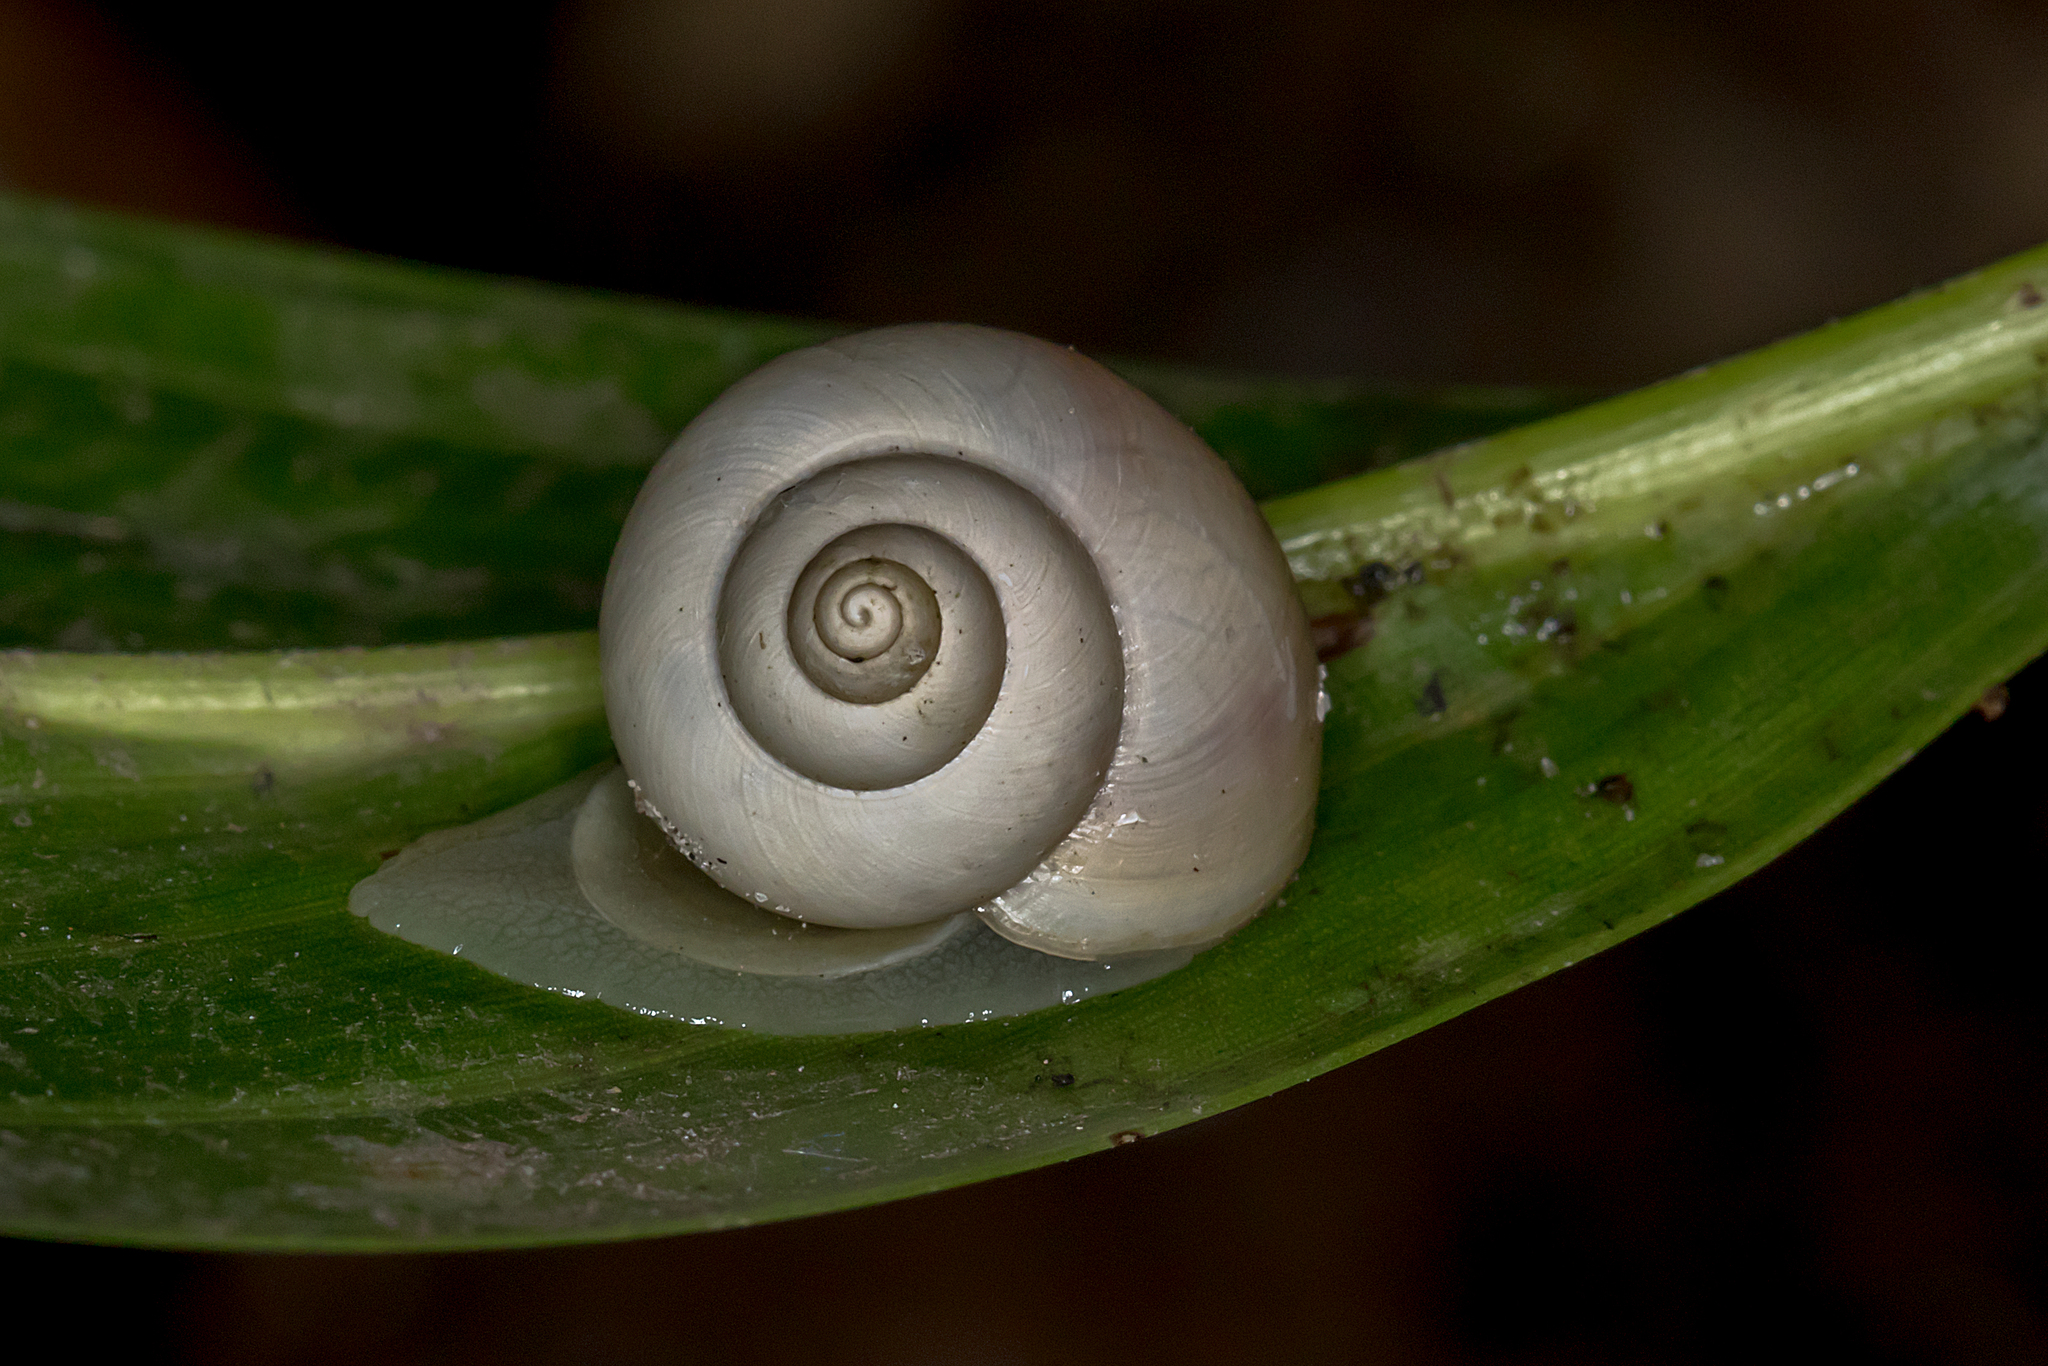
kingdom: Animalia
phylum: Mollusca
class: Gastropoda
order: Architaenioglossa
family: Cyclophoridae
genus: Leptopoma
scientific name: Leptopoma perlucidum
